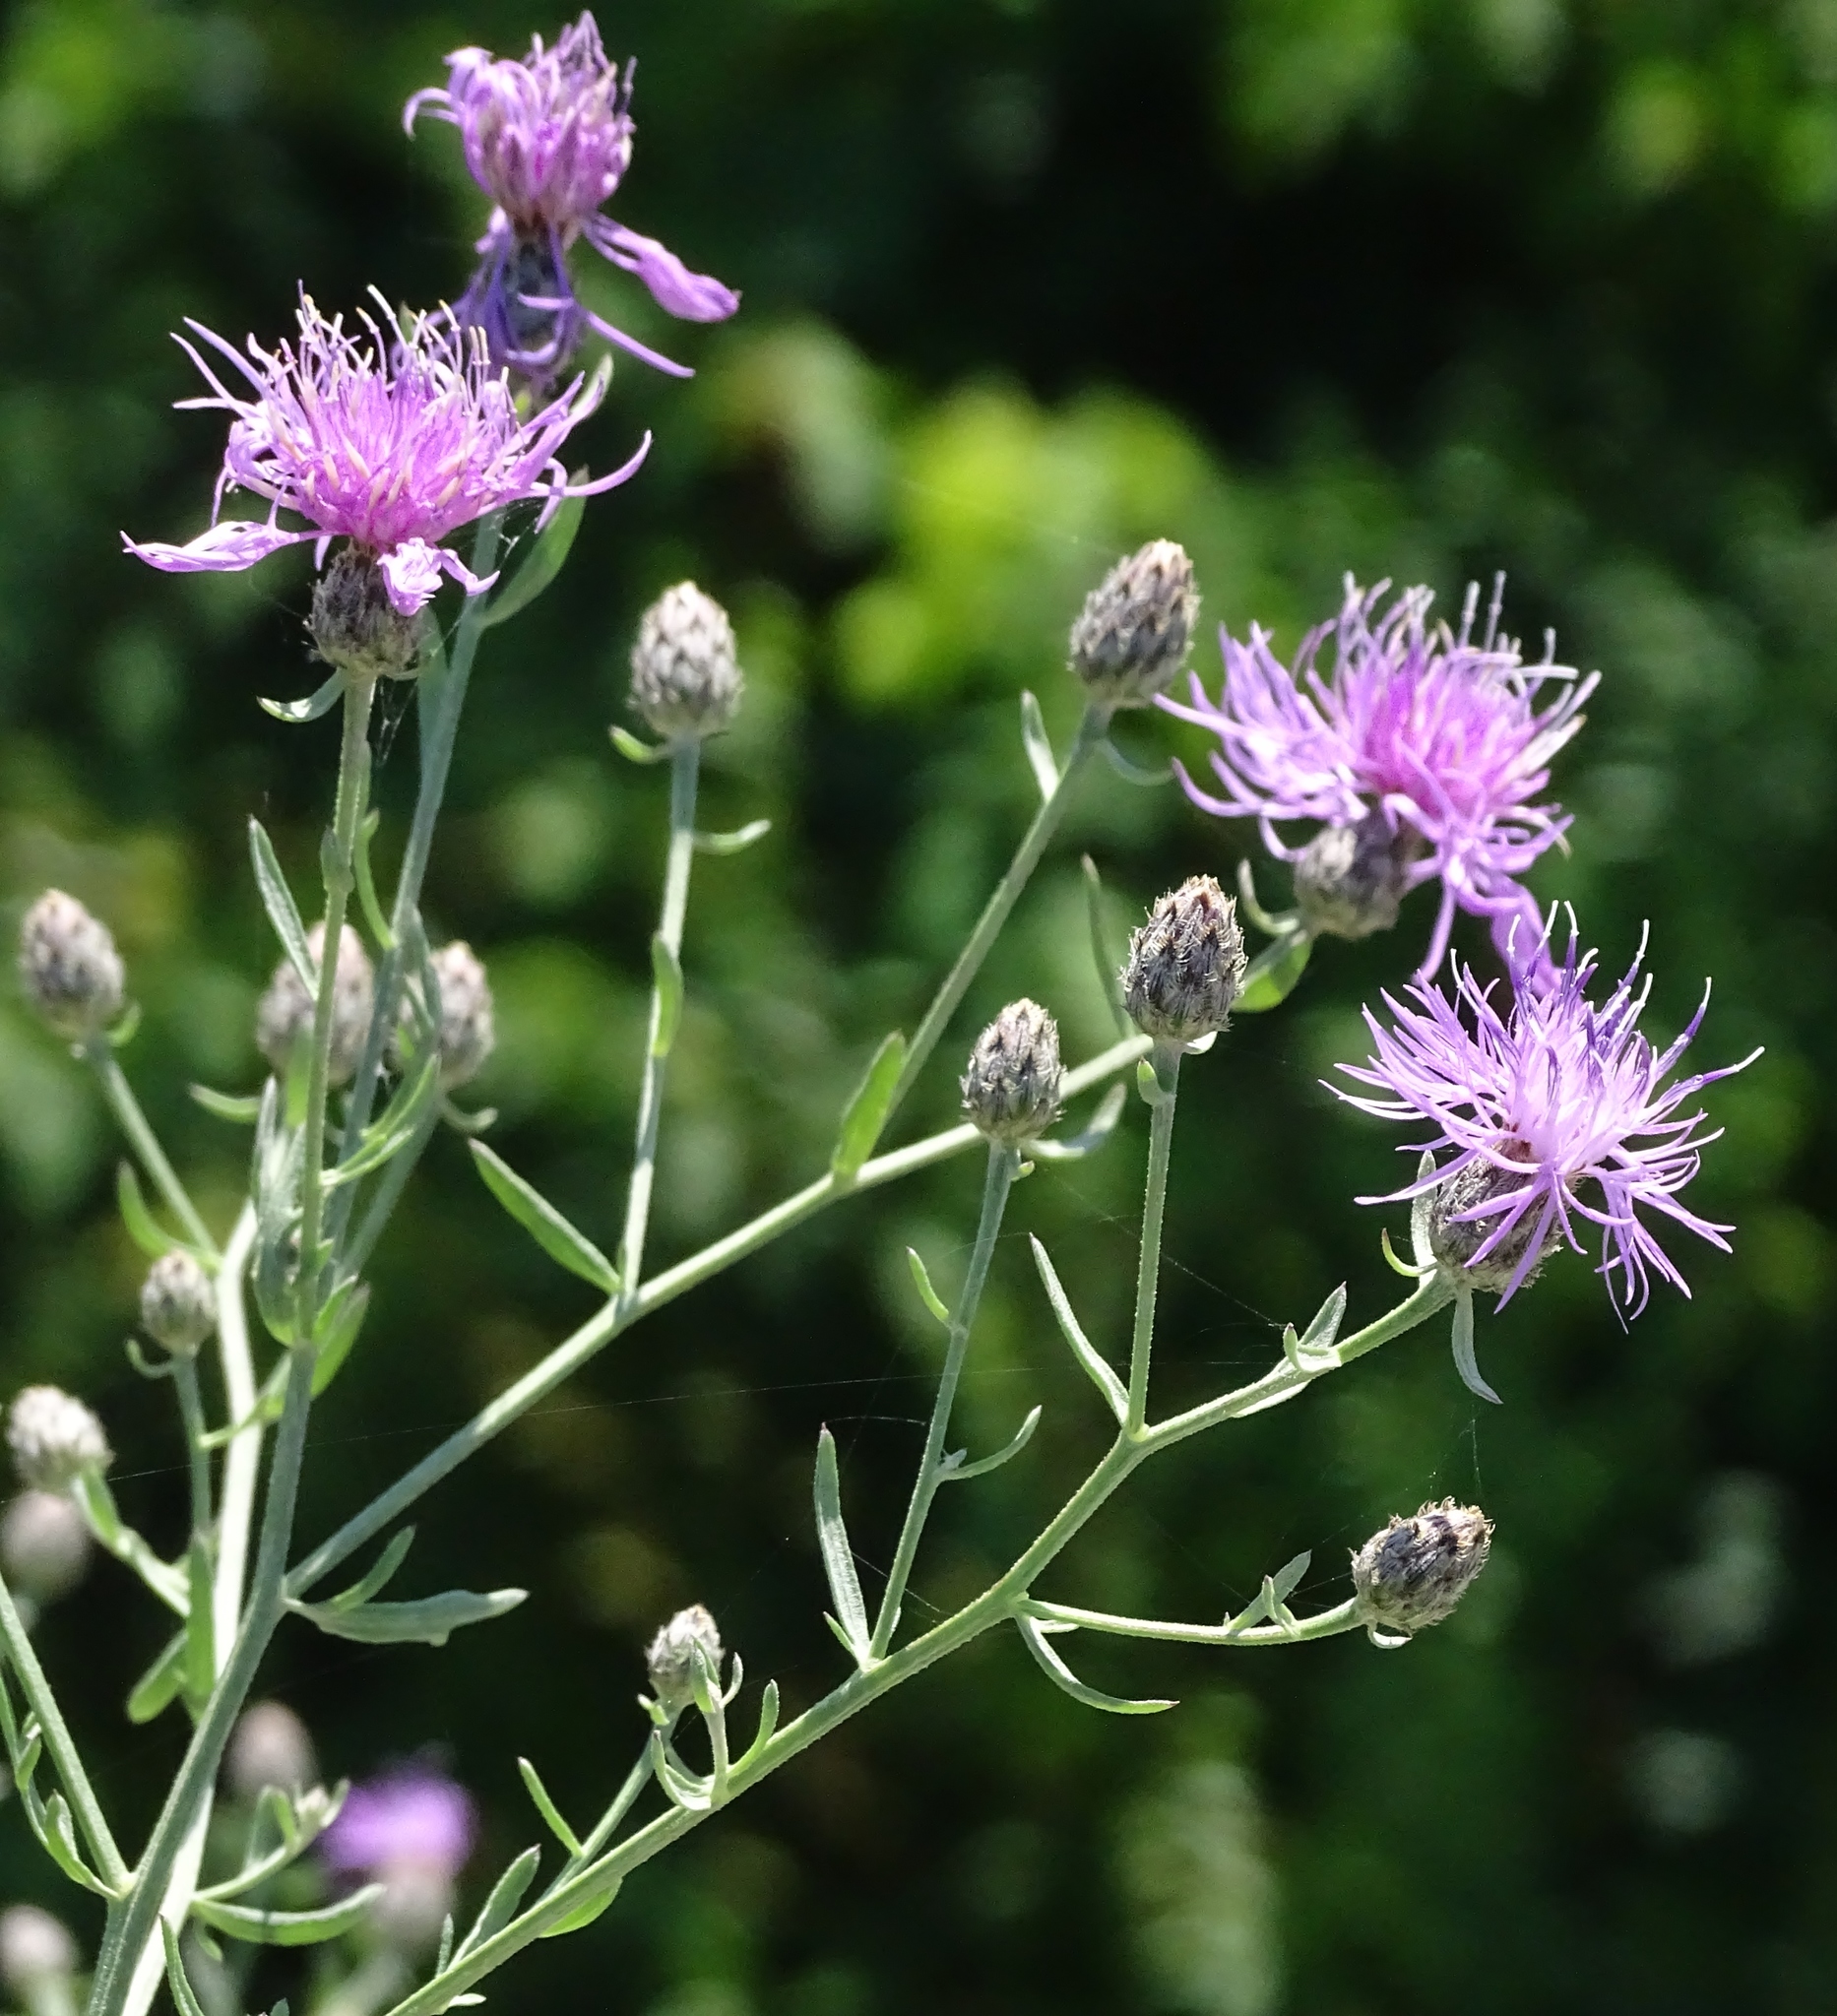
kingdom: Plantae
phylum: Tracheophyta
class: Magnoliopsida
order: Asterales
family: Asteraceae
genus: Centaurea
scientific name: Centaurea stoebe
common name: Spotted knapweed
